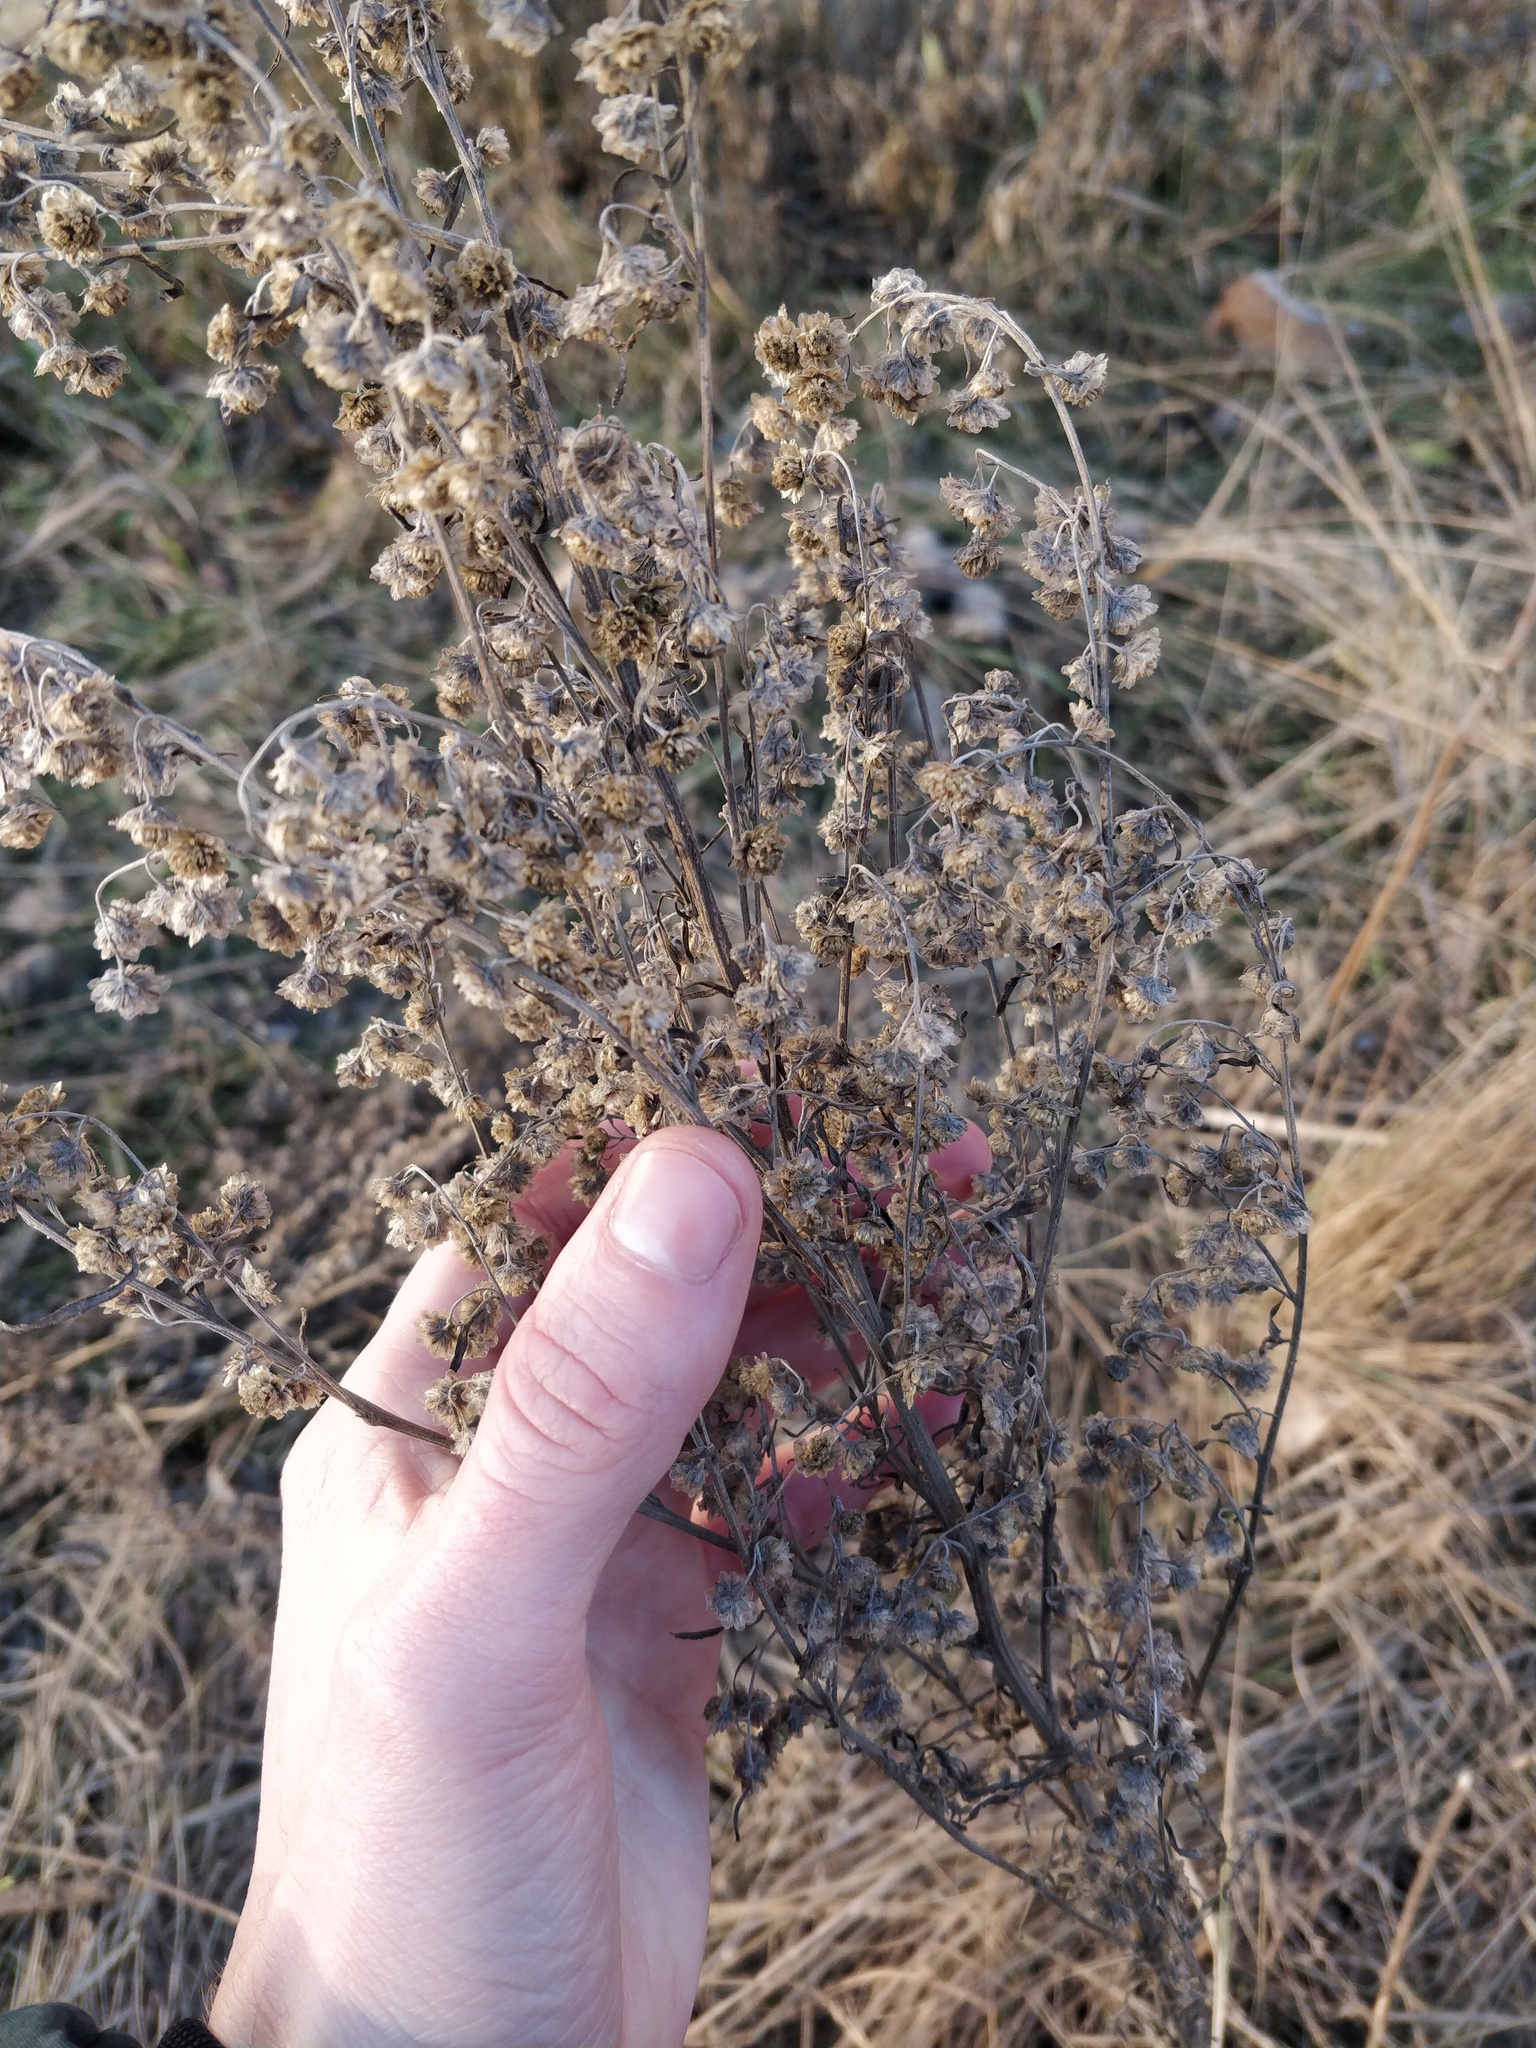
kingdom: Plantae
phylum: Tracheophyta
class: Magnoliopsida
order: Asterales
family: Asteraceae
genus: Artemisia
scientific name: Artemisia absinthium
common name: Wormwood
